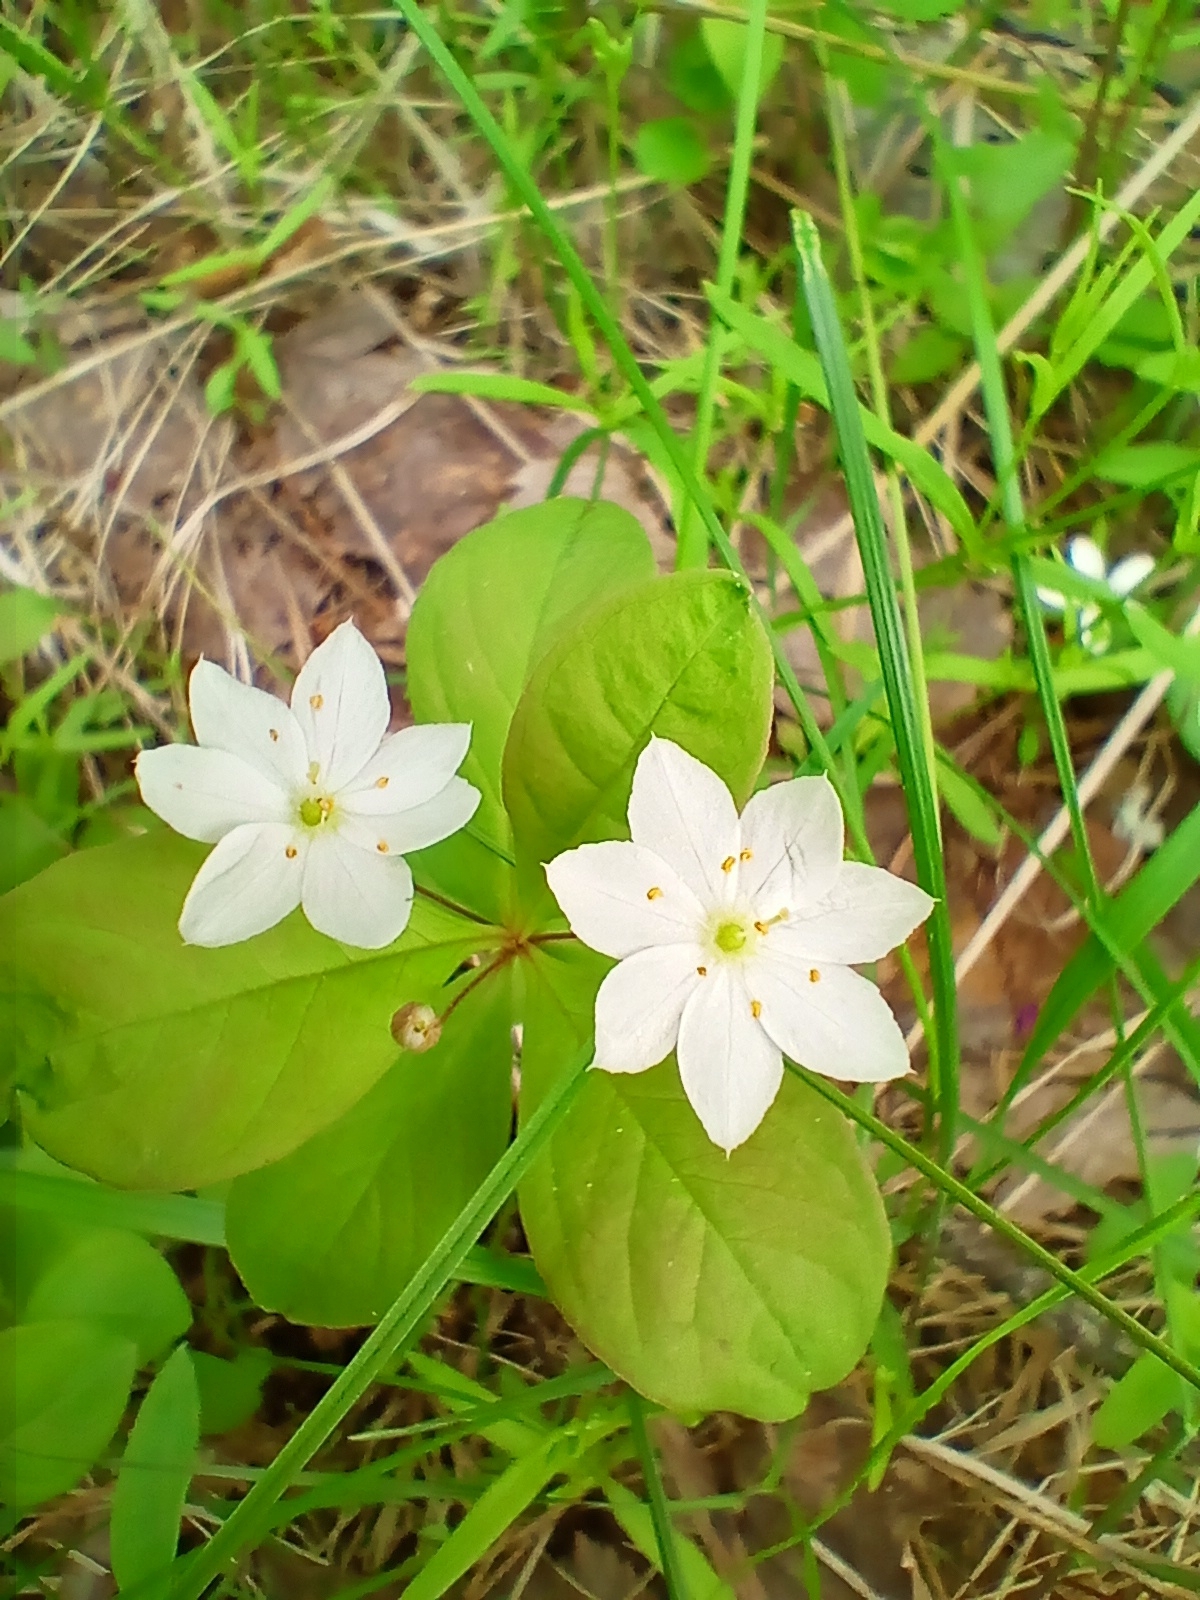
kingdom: Plantae
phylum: Tracheophyta
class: Magnoliopsida
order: Ericales
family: Primulaceae
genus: Lysimachia
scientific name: Lysimachia europaea
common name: Arctic starflower
